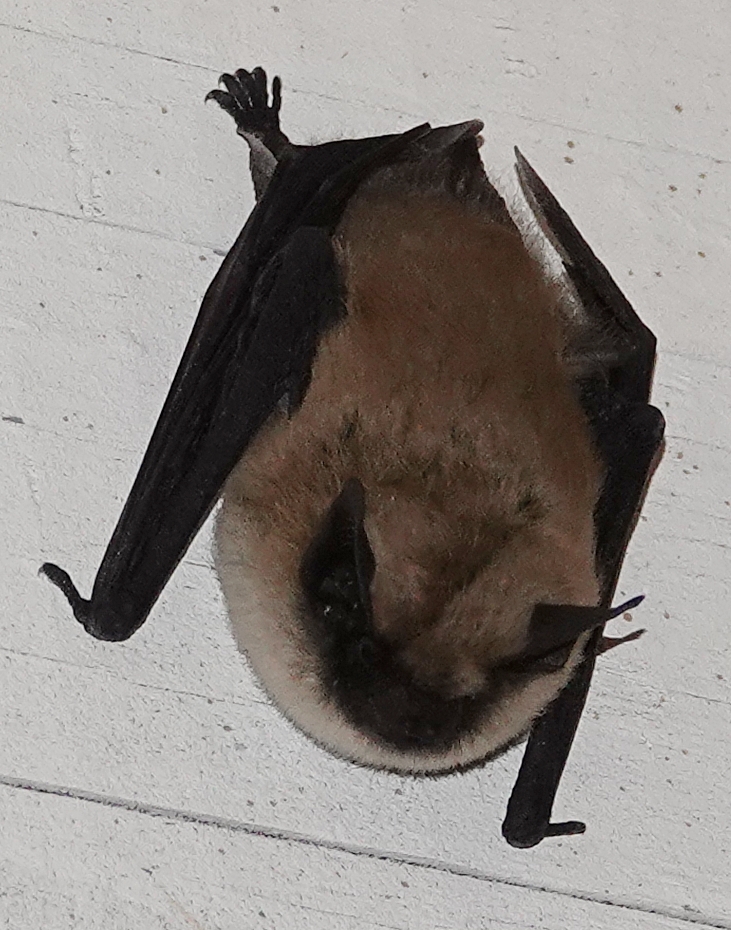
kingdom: Animalia
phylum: Chordata
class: Mammalia
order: Chiroptera
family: Vespertilionidae
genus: Myotis
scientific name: Myotis ciliolabrum
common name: Western small-footed myotis
